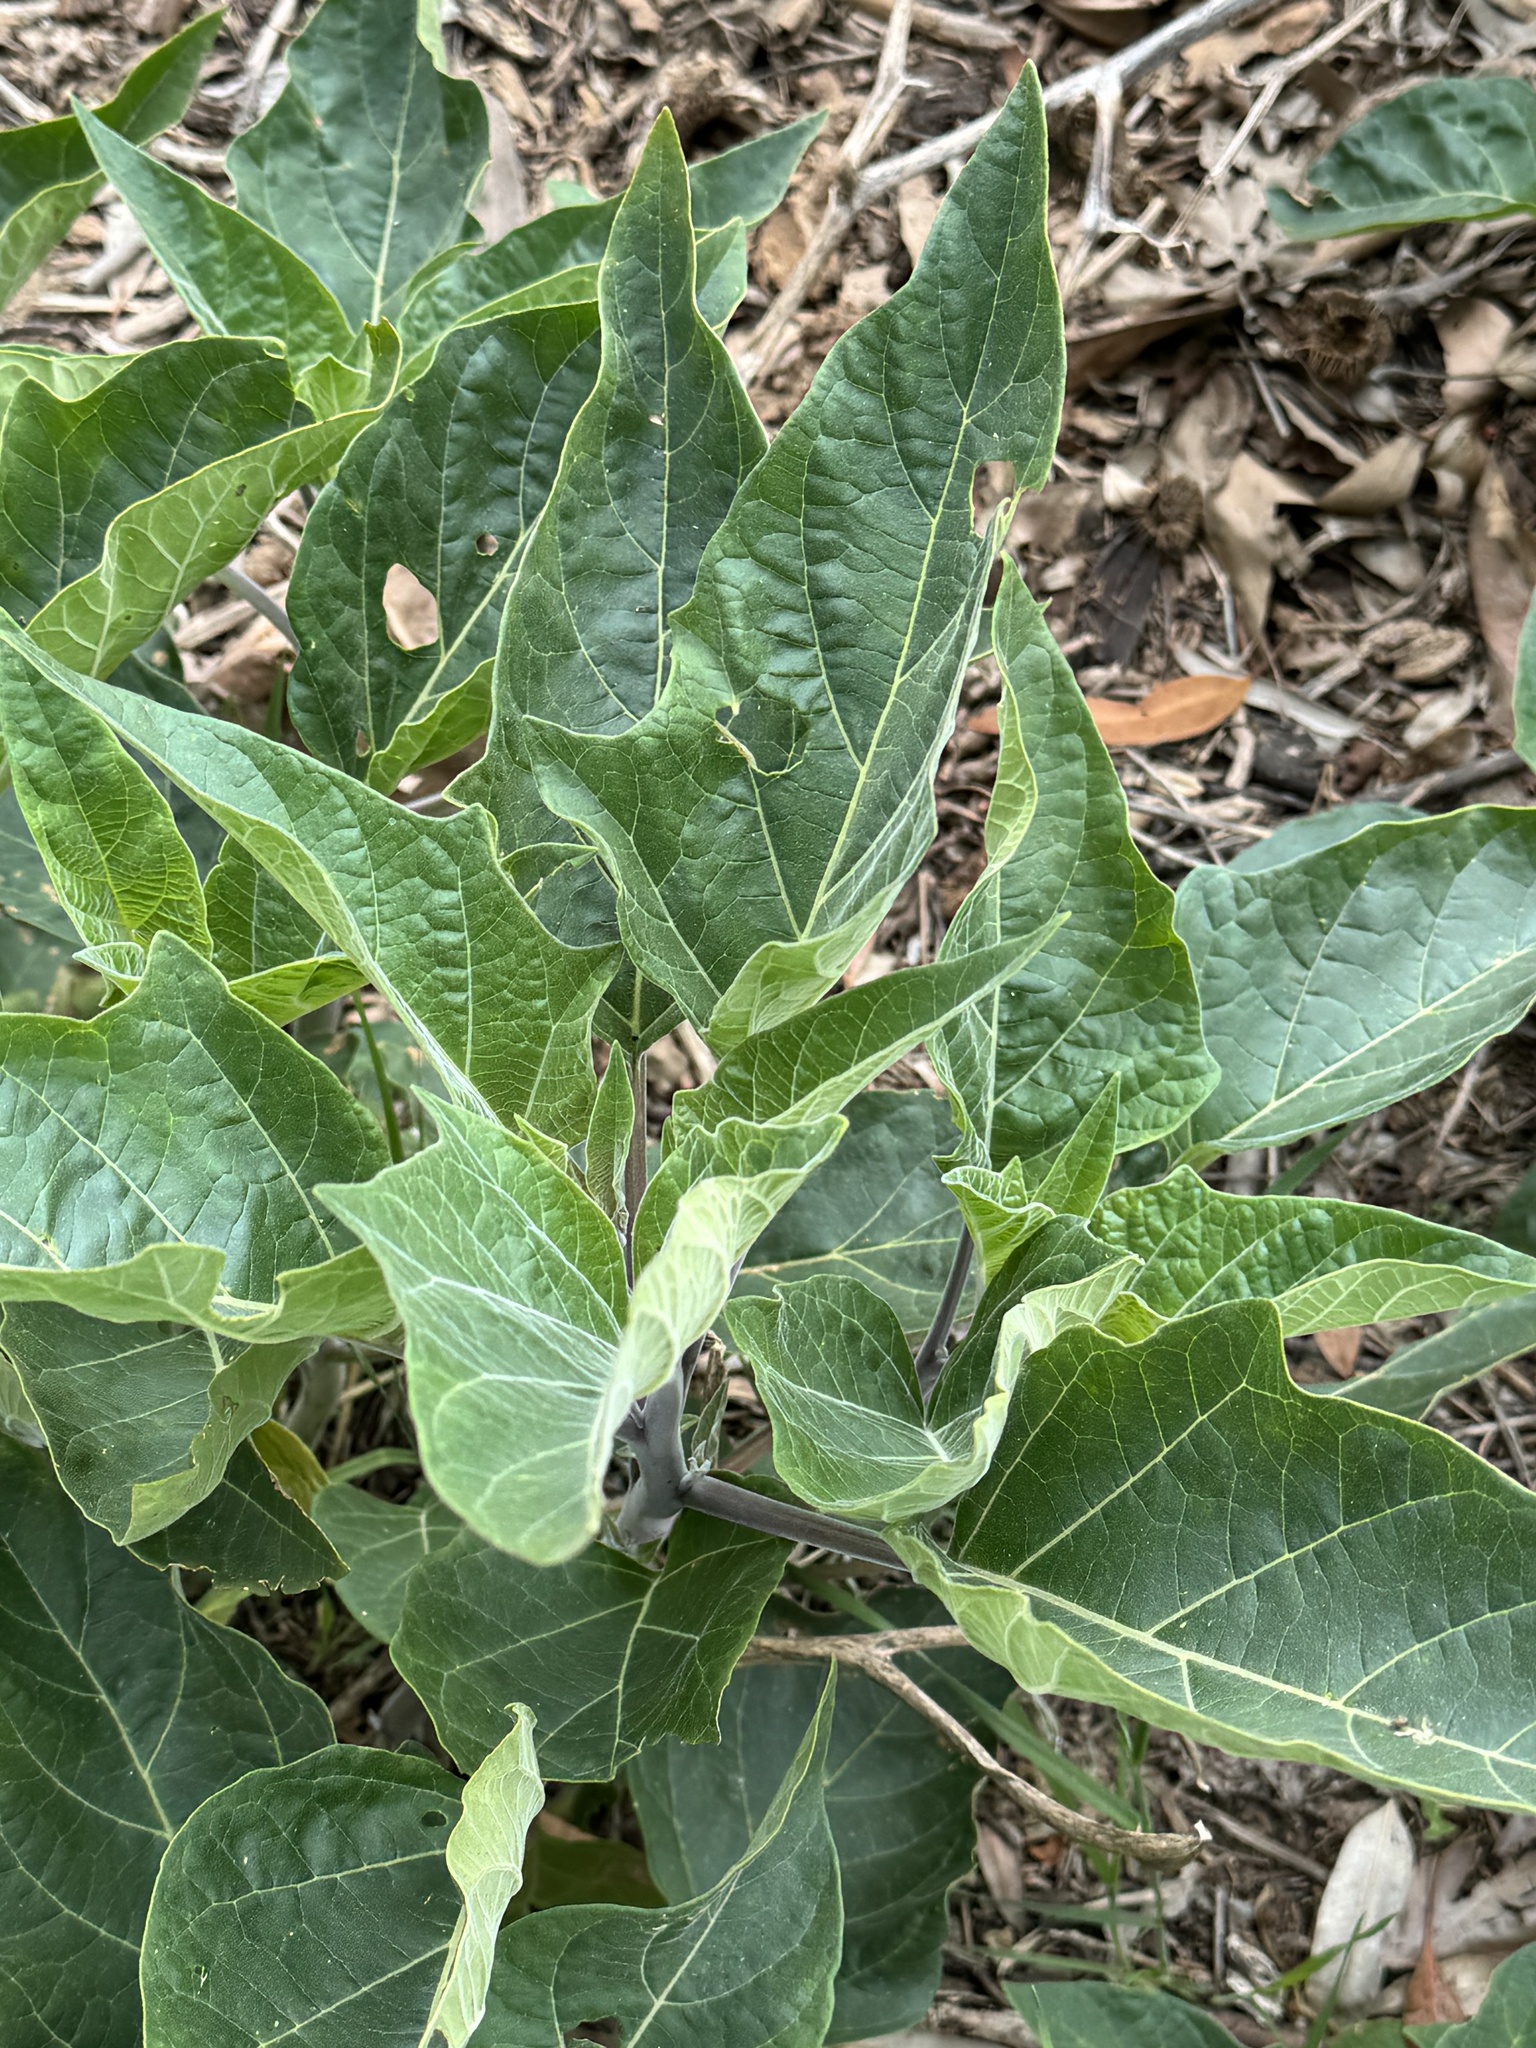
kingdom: Plantae
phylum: Tracheophyta
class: Magnoliopsida
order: Solanales
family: Solanaceae
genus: Datura
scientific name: Datura wrightii
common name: Sacred thorn-apple
